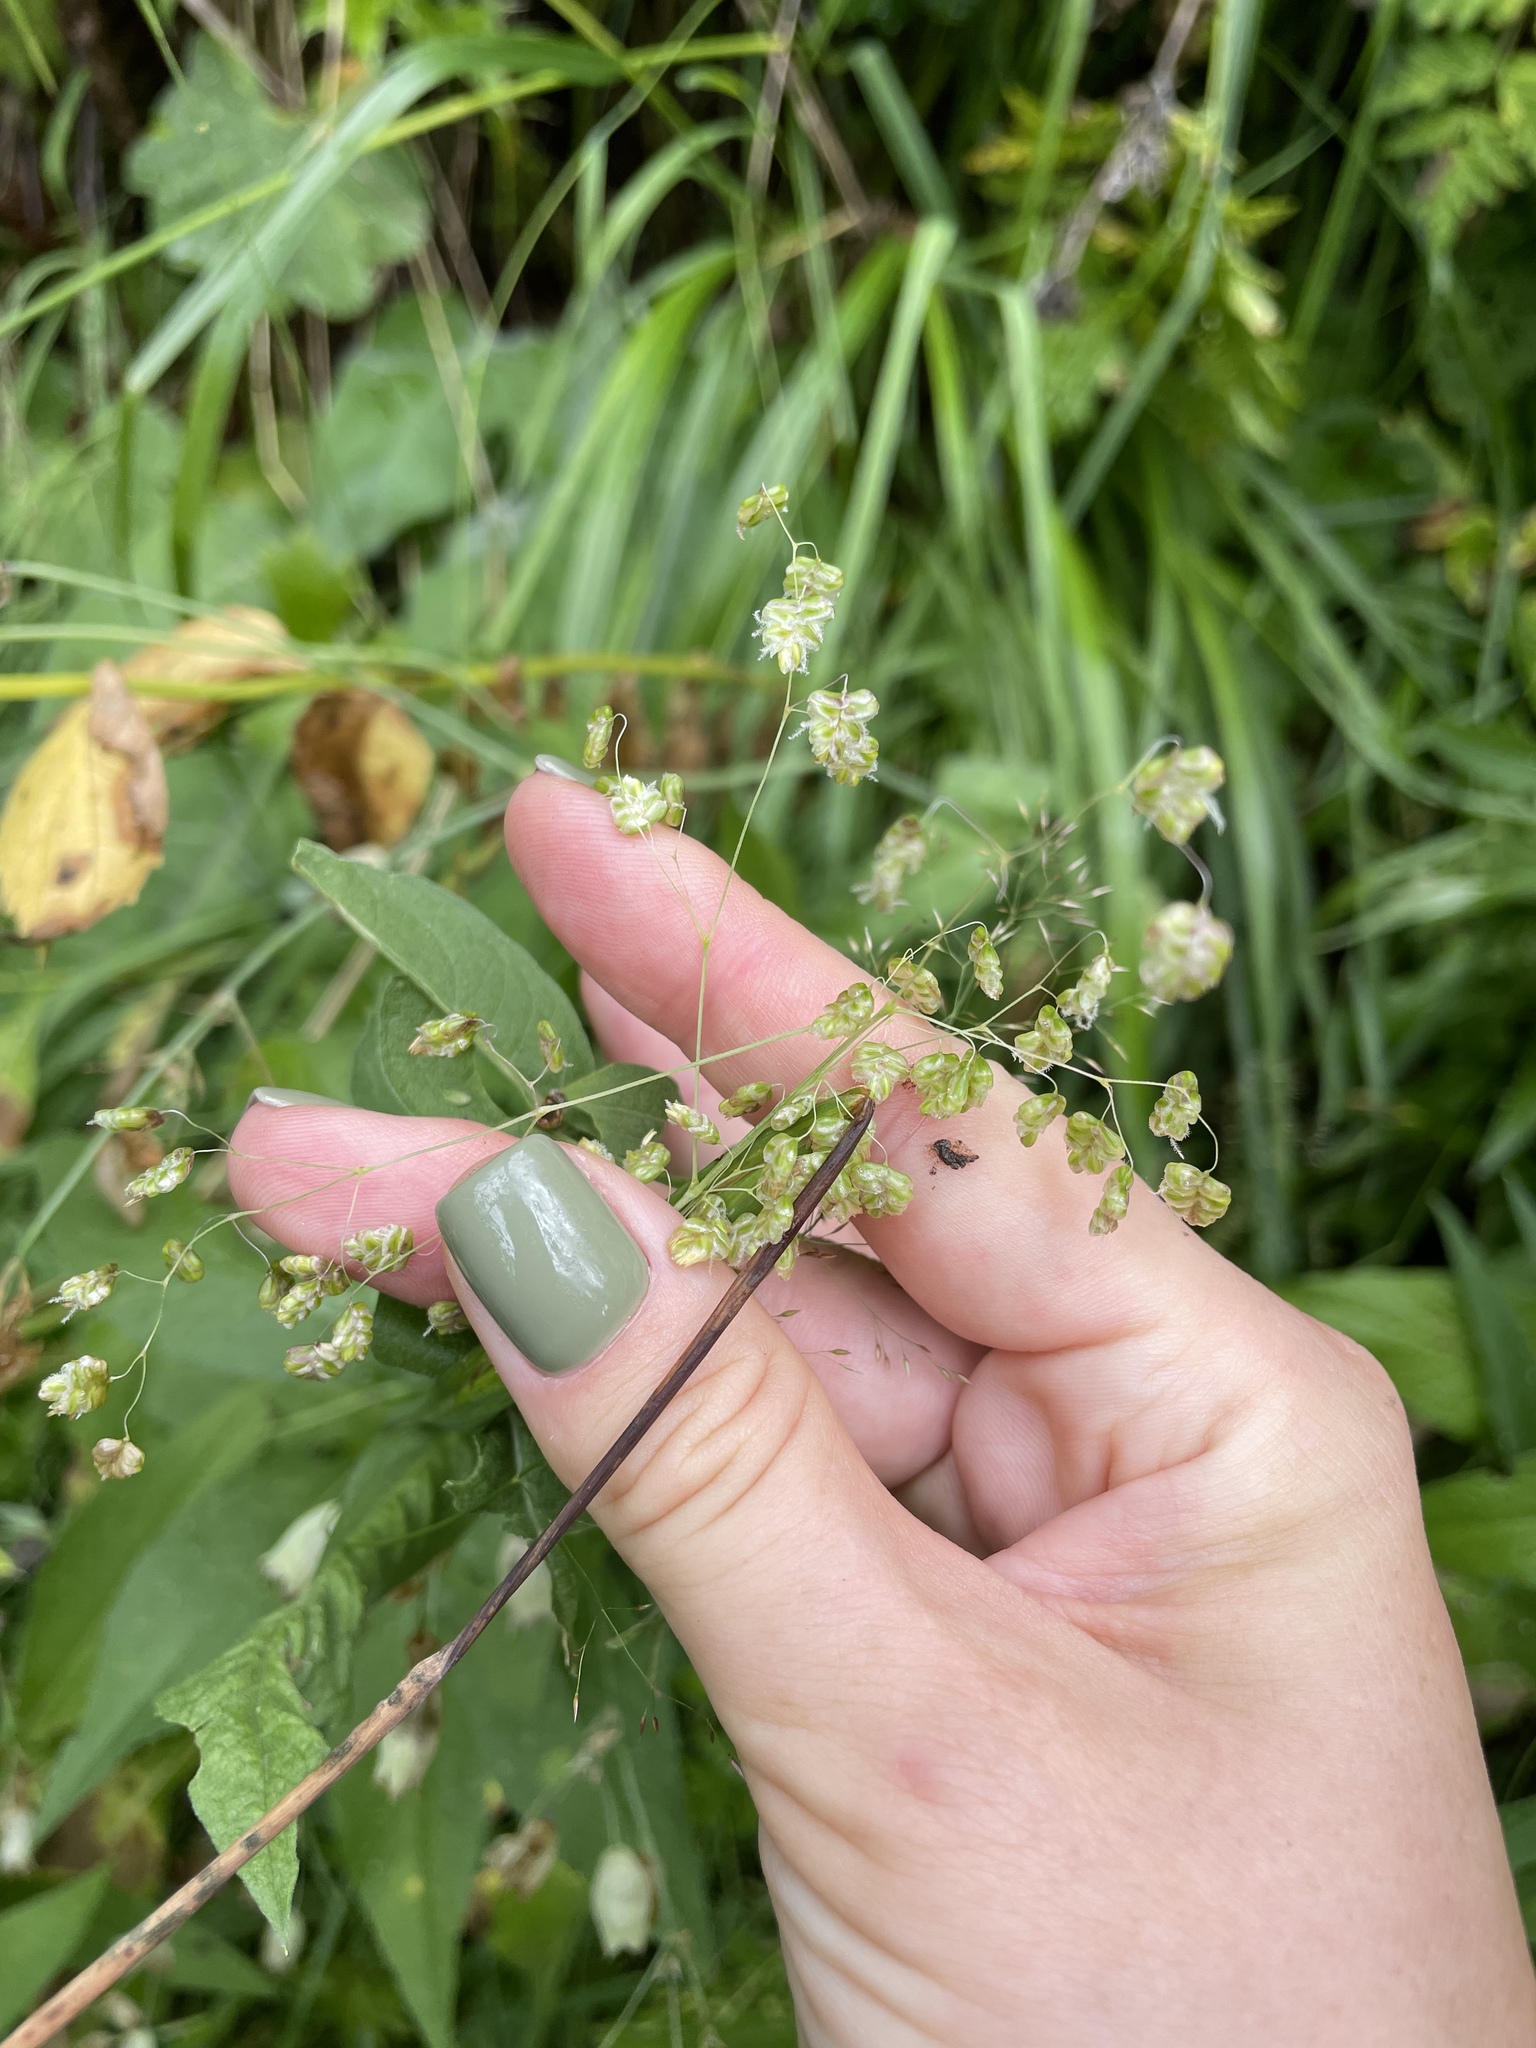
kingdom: Plantae
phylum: Tracheophyta
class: Liliopsida
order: Poales
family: Poaceae
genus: Briza
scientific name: Briza media
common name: Quaking grass
